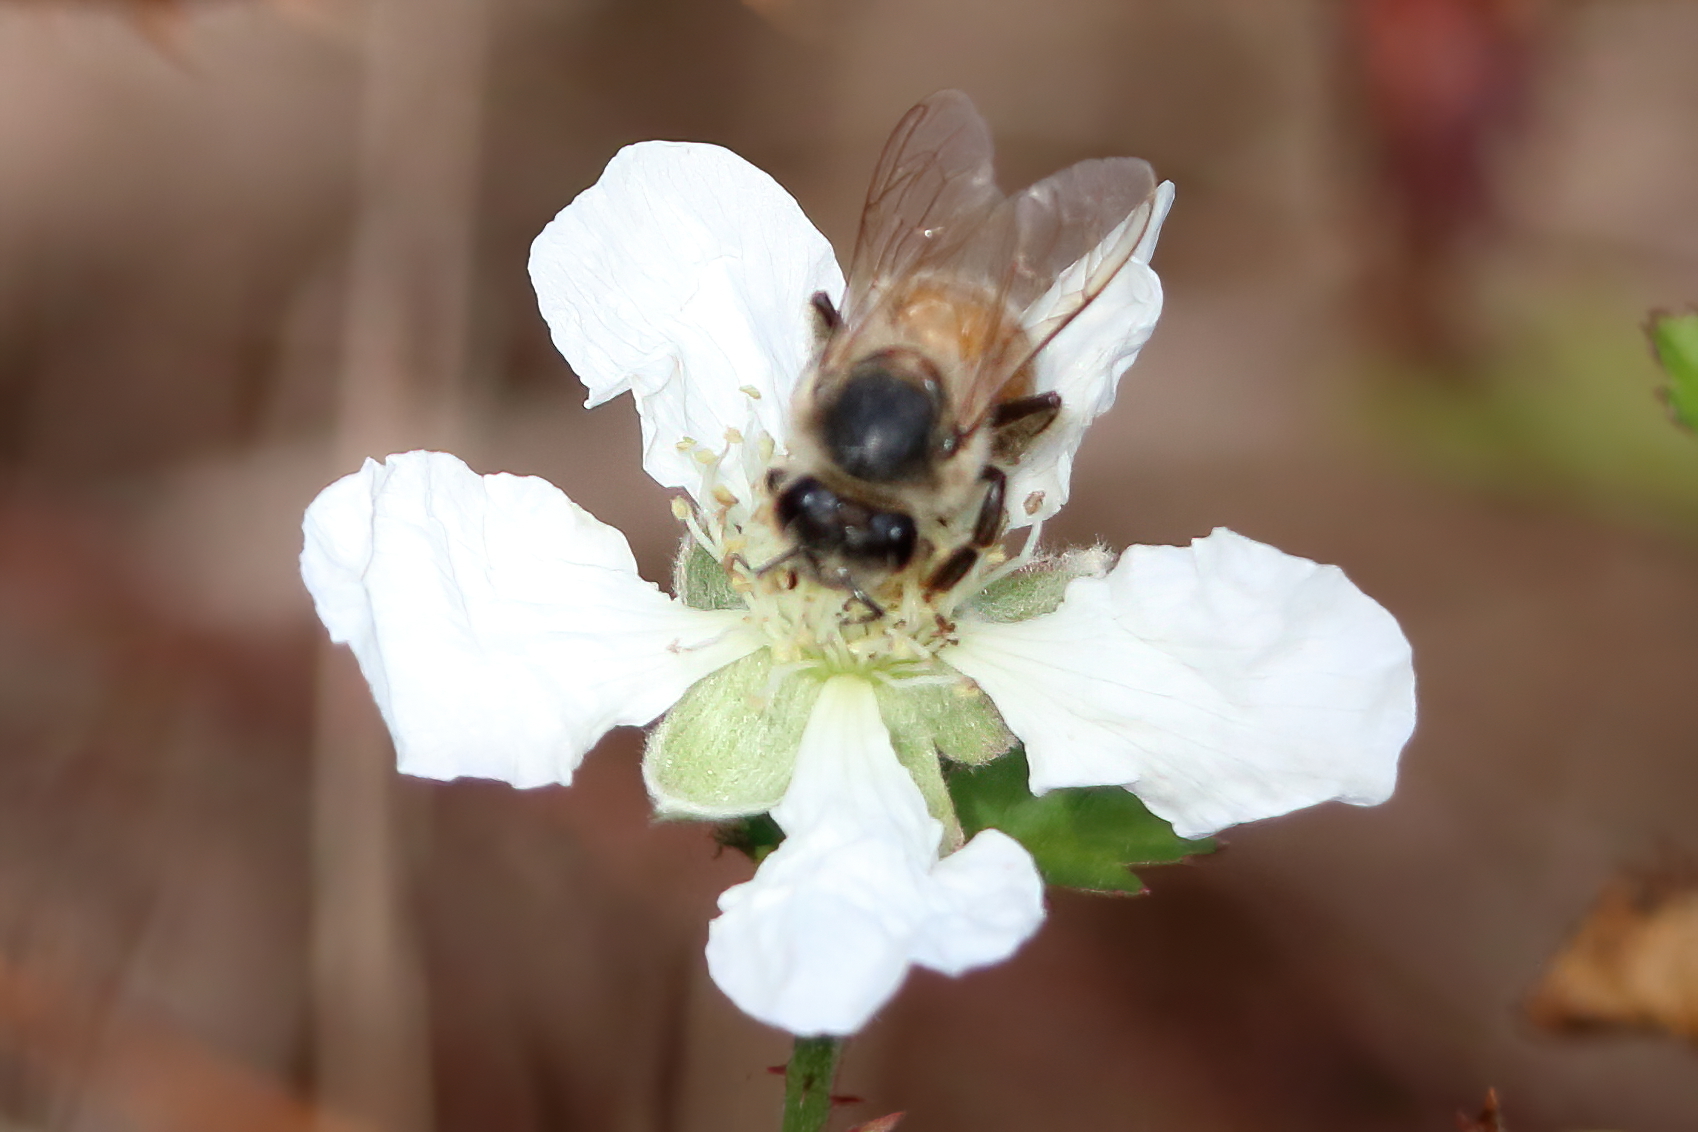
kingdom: Animalia
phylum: Arthropoda
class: Insecta
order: Hymenoptera
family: Apidae
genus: Apis
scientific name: Apis mellifera
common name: Honey bee
